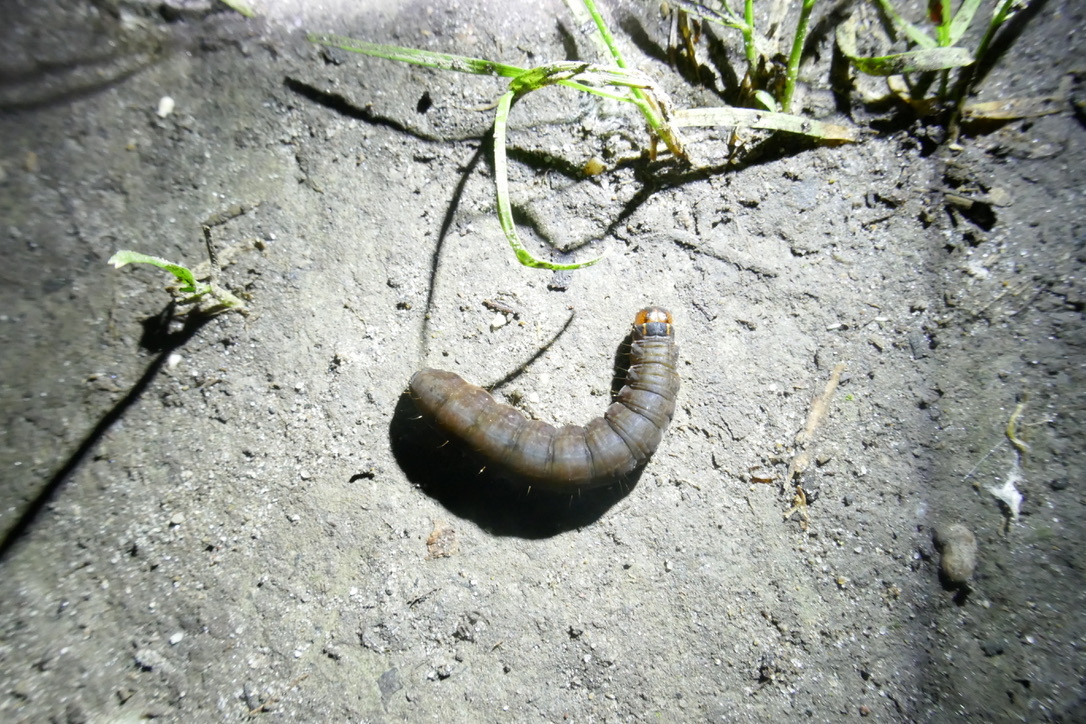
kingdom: Animalia
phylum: Arthropoda
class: Insecta
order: Lepidoptera
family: Noctuidae
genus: Eupsilia
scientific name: Eupsilia transversa
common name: Satellite
